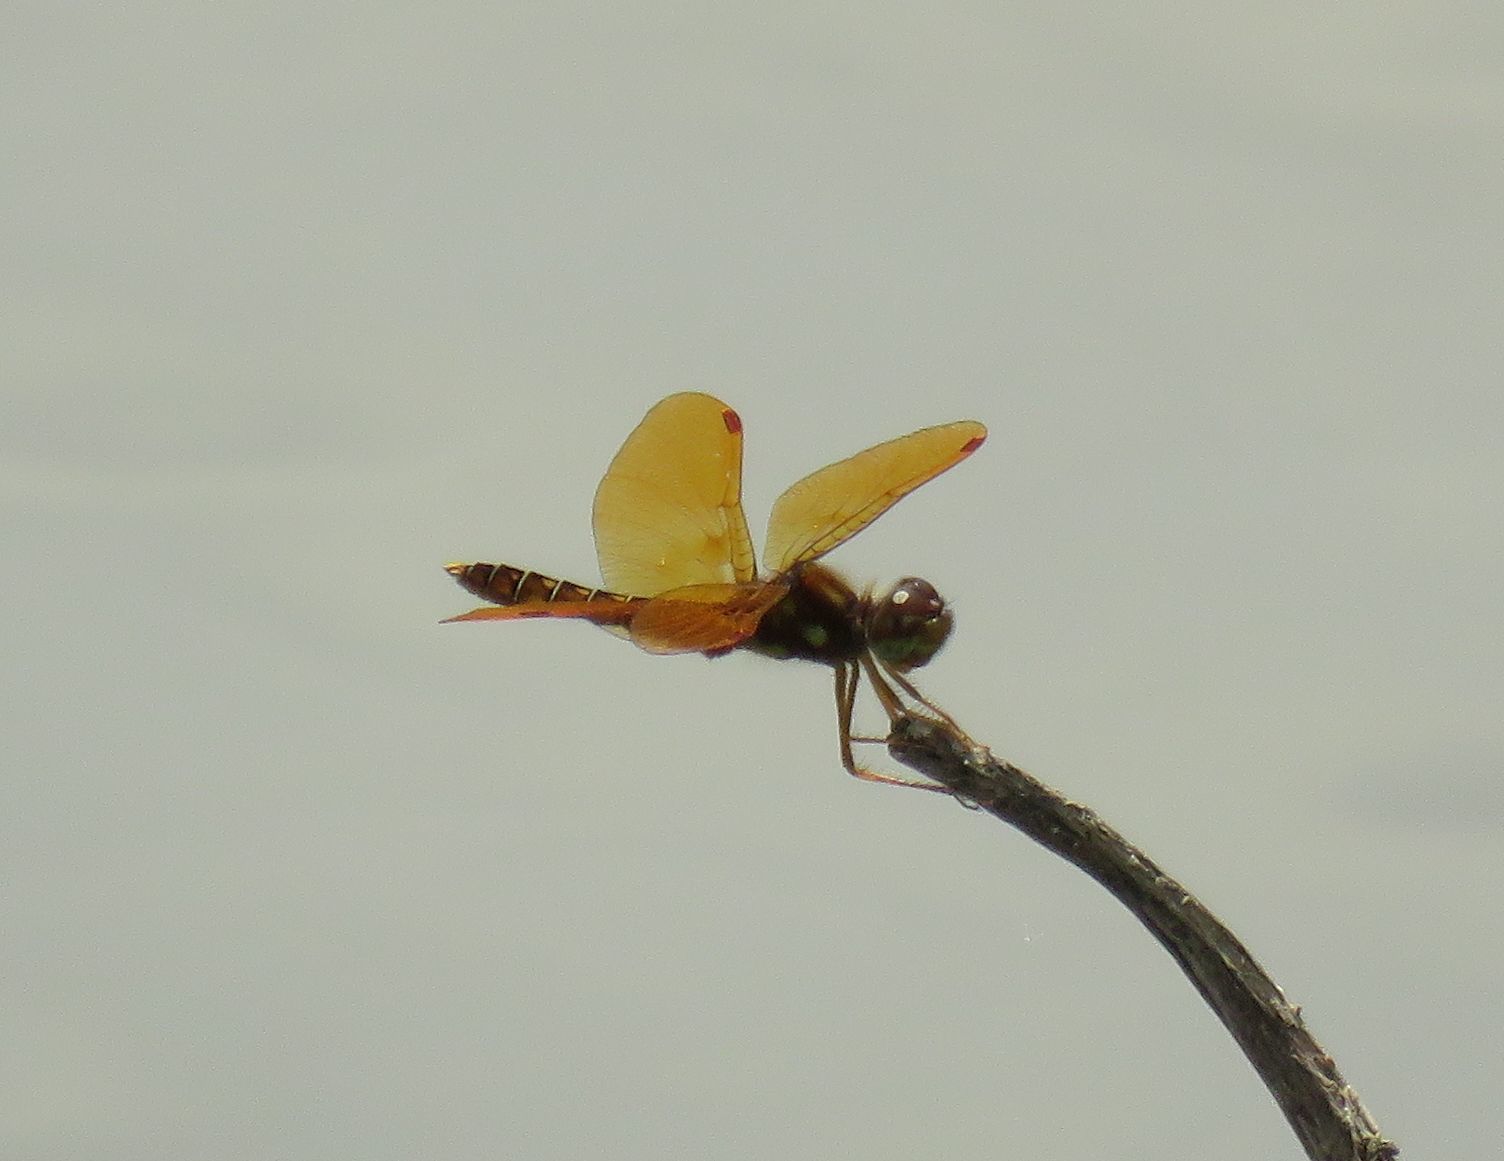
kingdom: Animalia
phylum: Arthropoda
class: Insecta
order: Odonata
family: Libellulidae
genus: Perithemis
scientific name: Perithemis tenera
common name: Eastern amberwing
